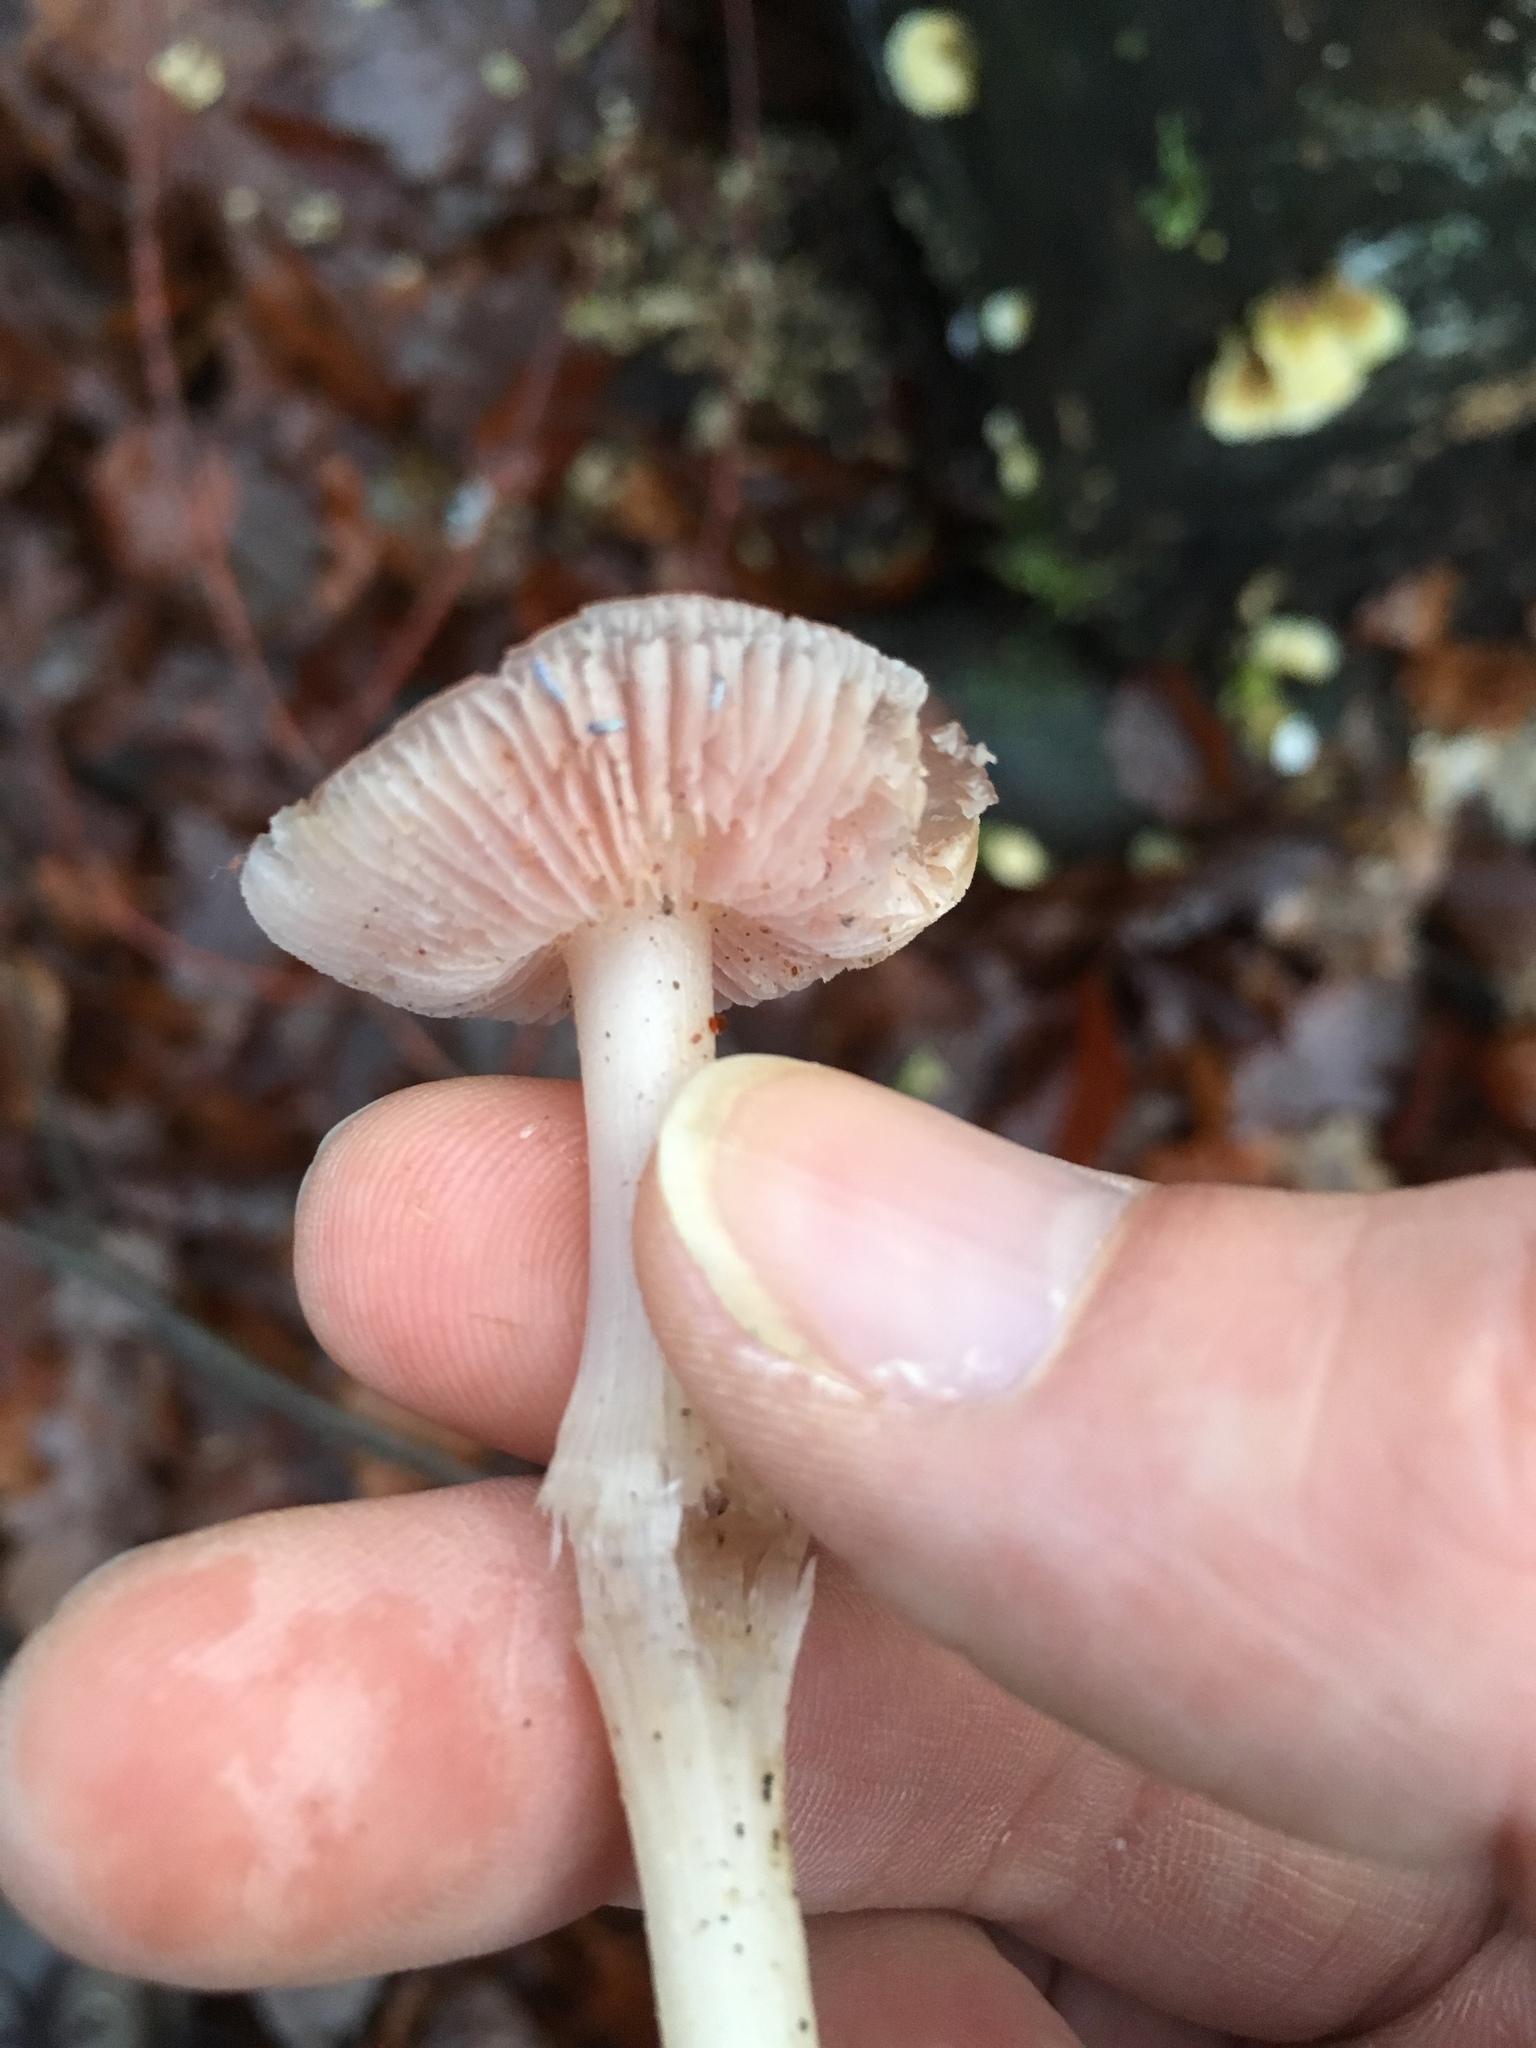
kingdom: Fungi
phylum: Basidiomycota
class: Agaricomycetes
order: Agaricales
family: Mycenaceae
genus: Mycena
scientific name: Mycena rosea
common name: Rosy bonnet
